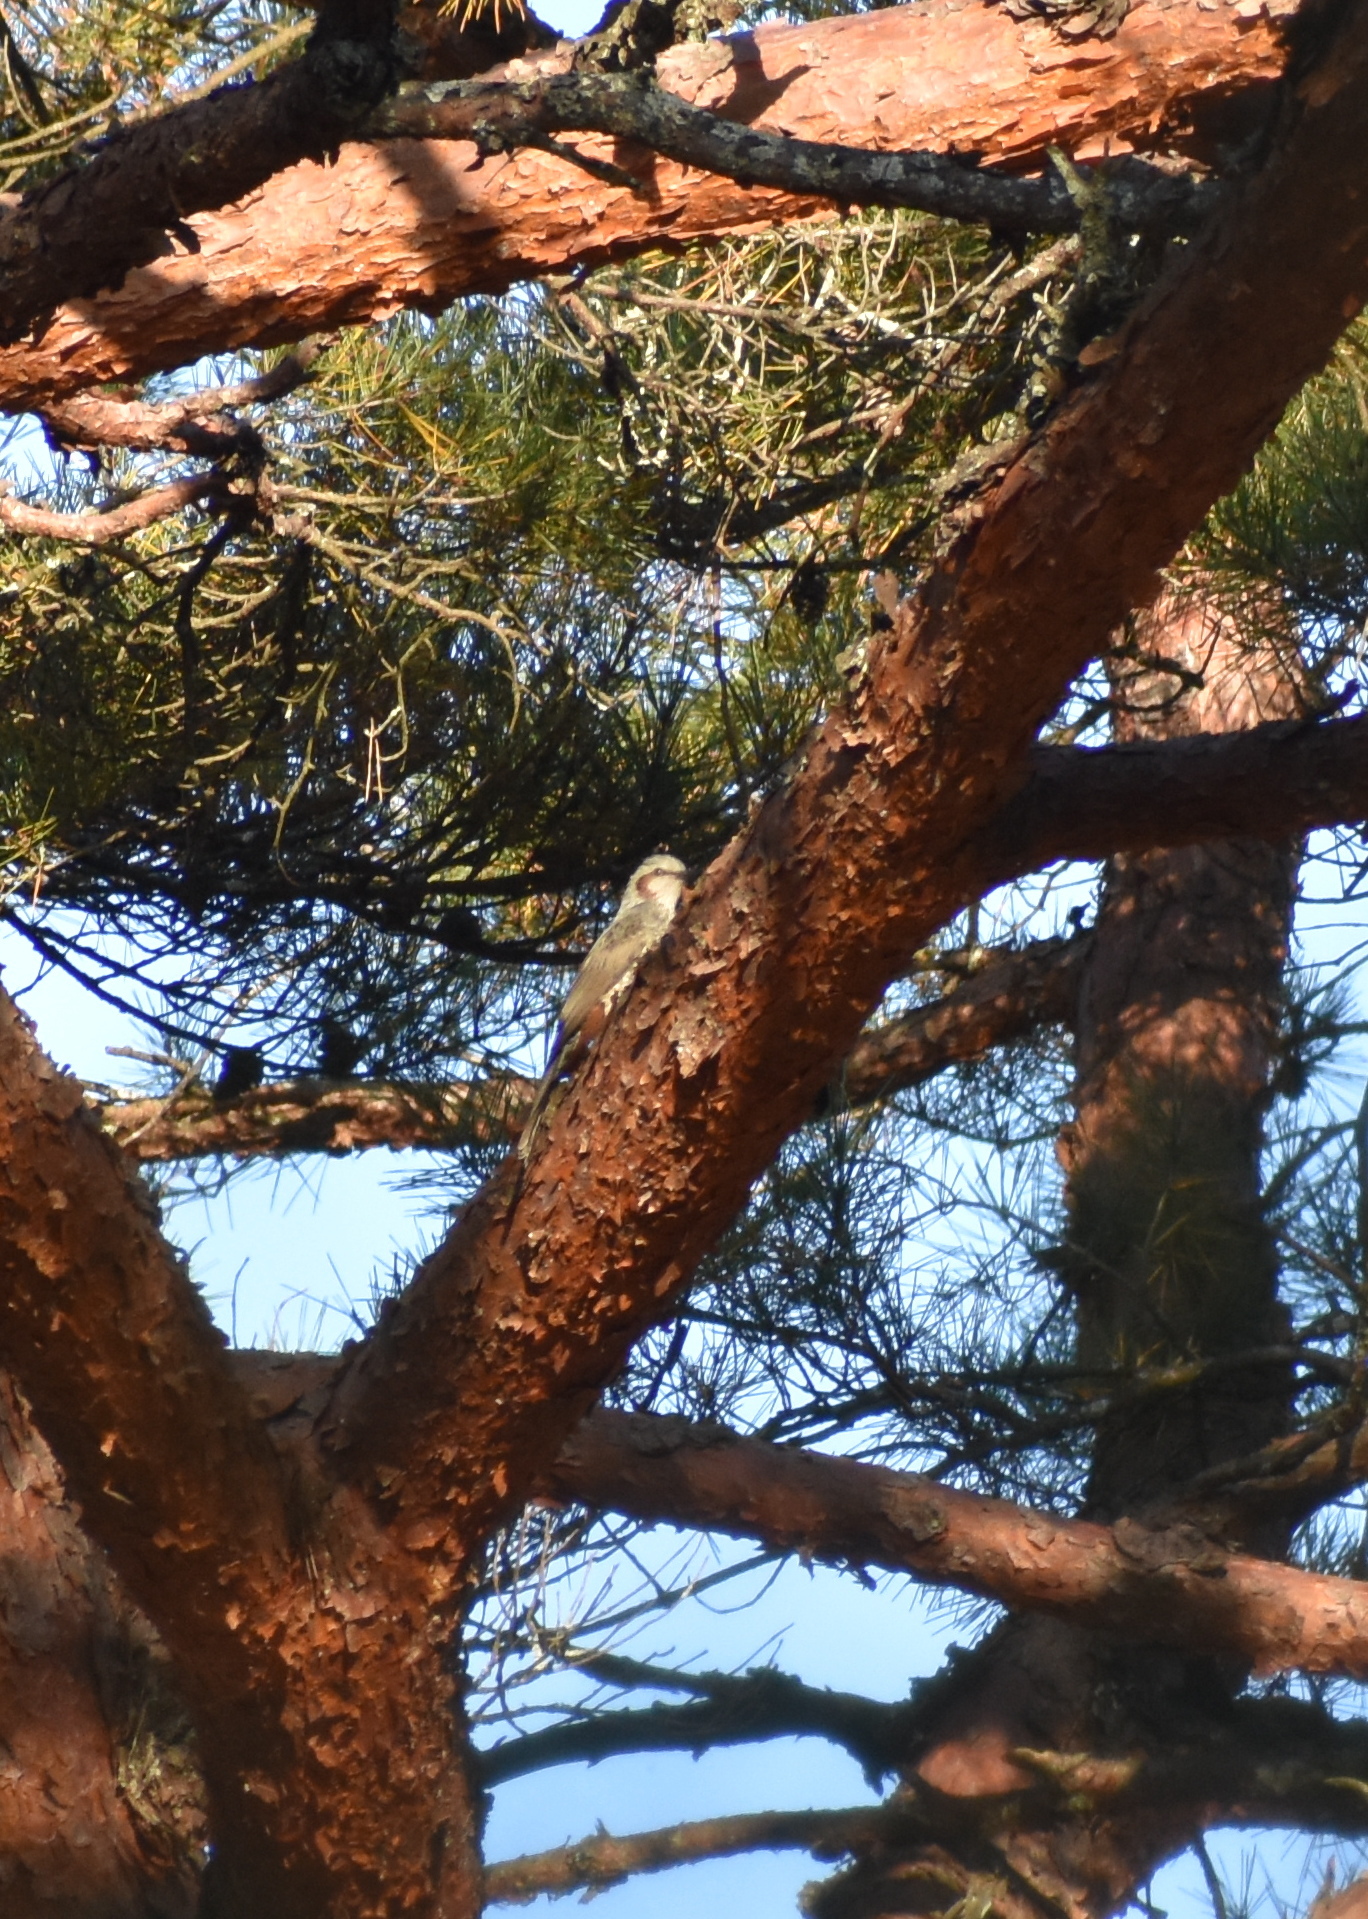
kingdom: Animalia
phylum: Chordata
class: Aves
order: Passeriformes
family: Pycnonotidae
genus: Hypsipetes
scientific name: Hypsipetes amaurotis
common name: Brown-eared bulbul
